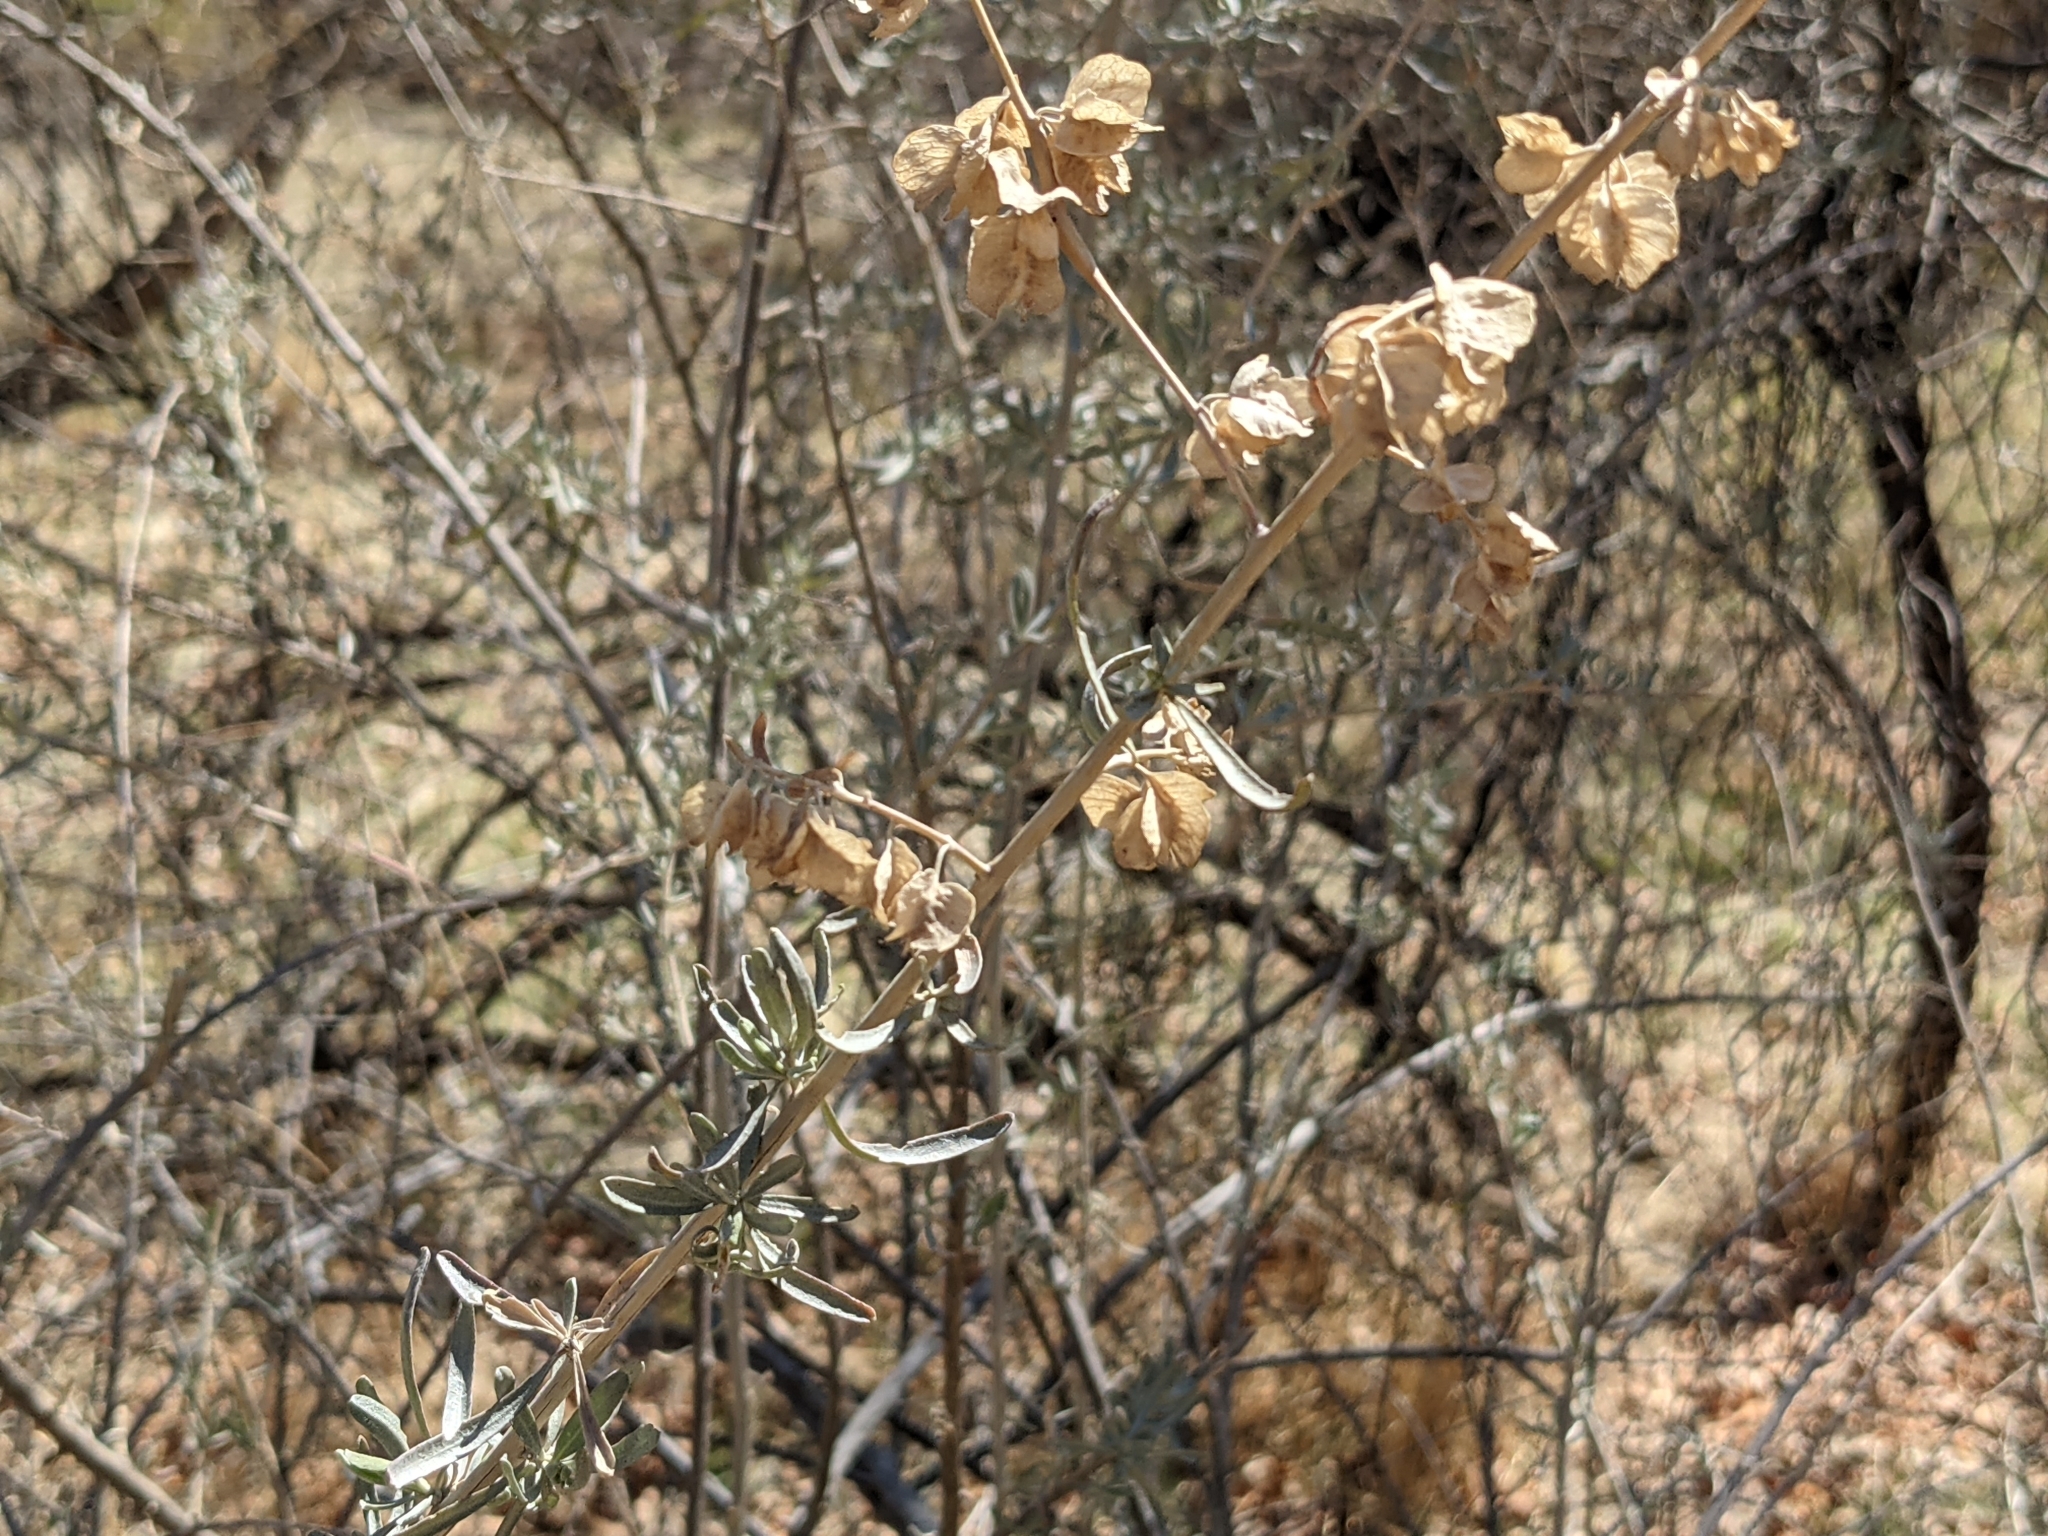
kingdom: Plantae
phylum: Tracheophyta
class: Magnoliopsida
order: Caryophyllales
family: Amaranthaceae
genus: Atriplex
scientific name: Atriplex canescens
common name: Four-wing saltbush
